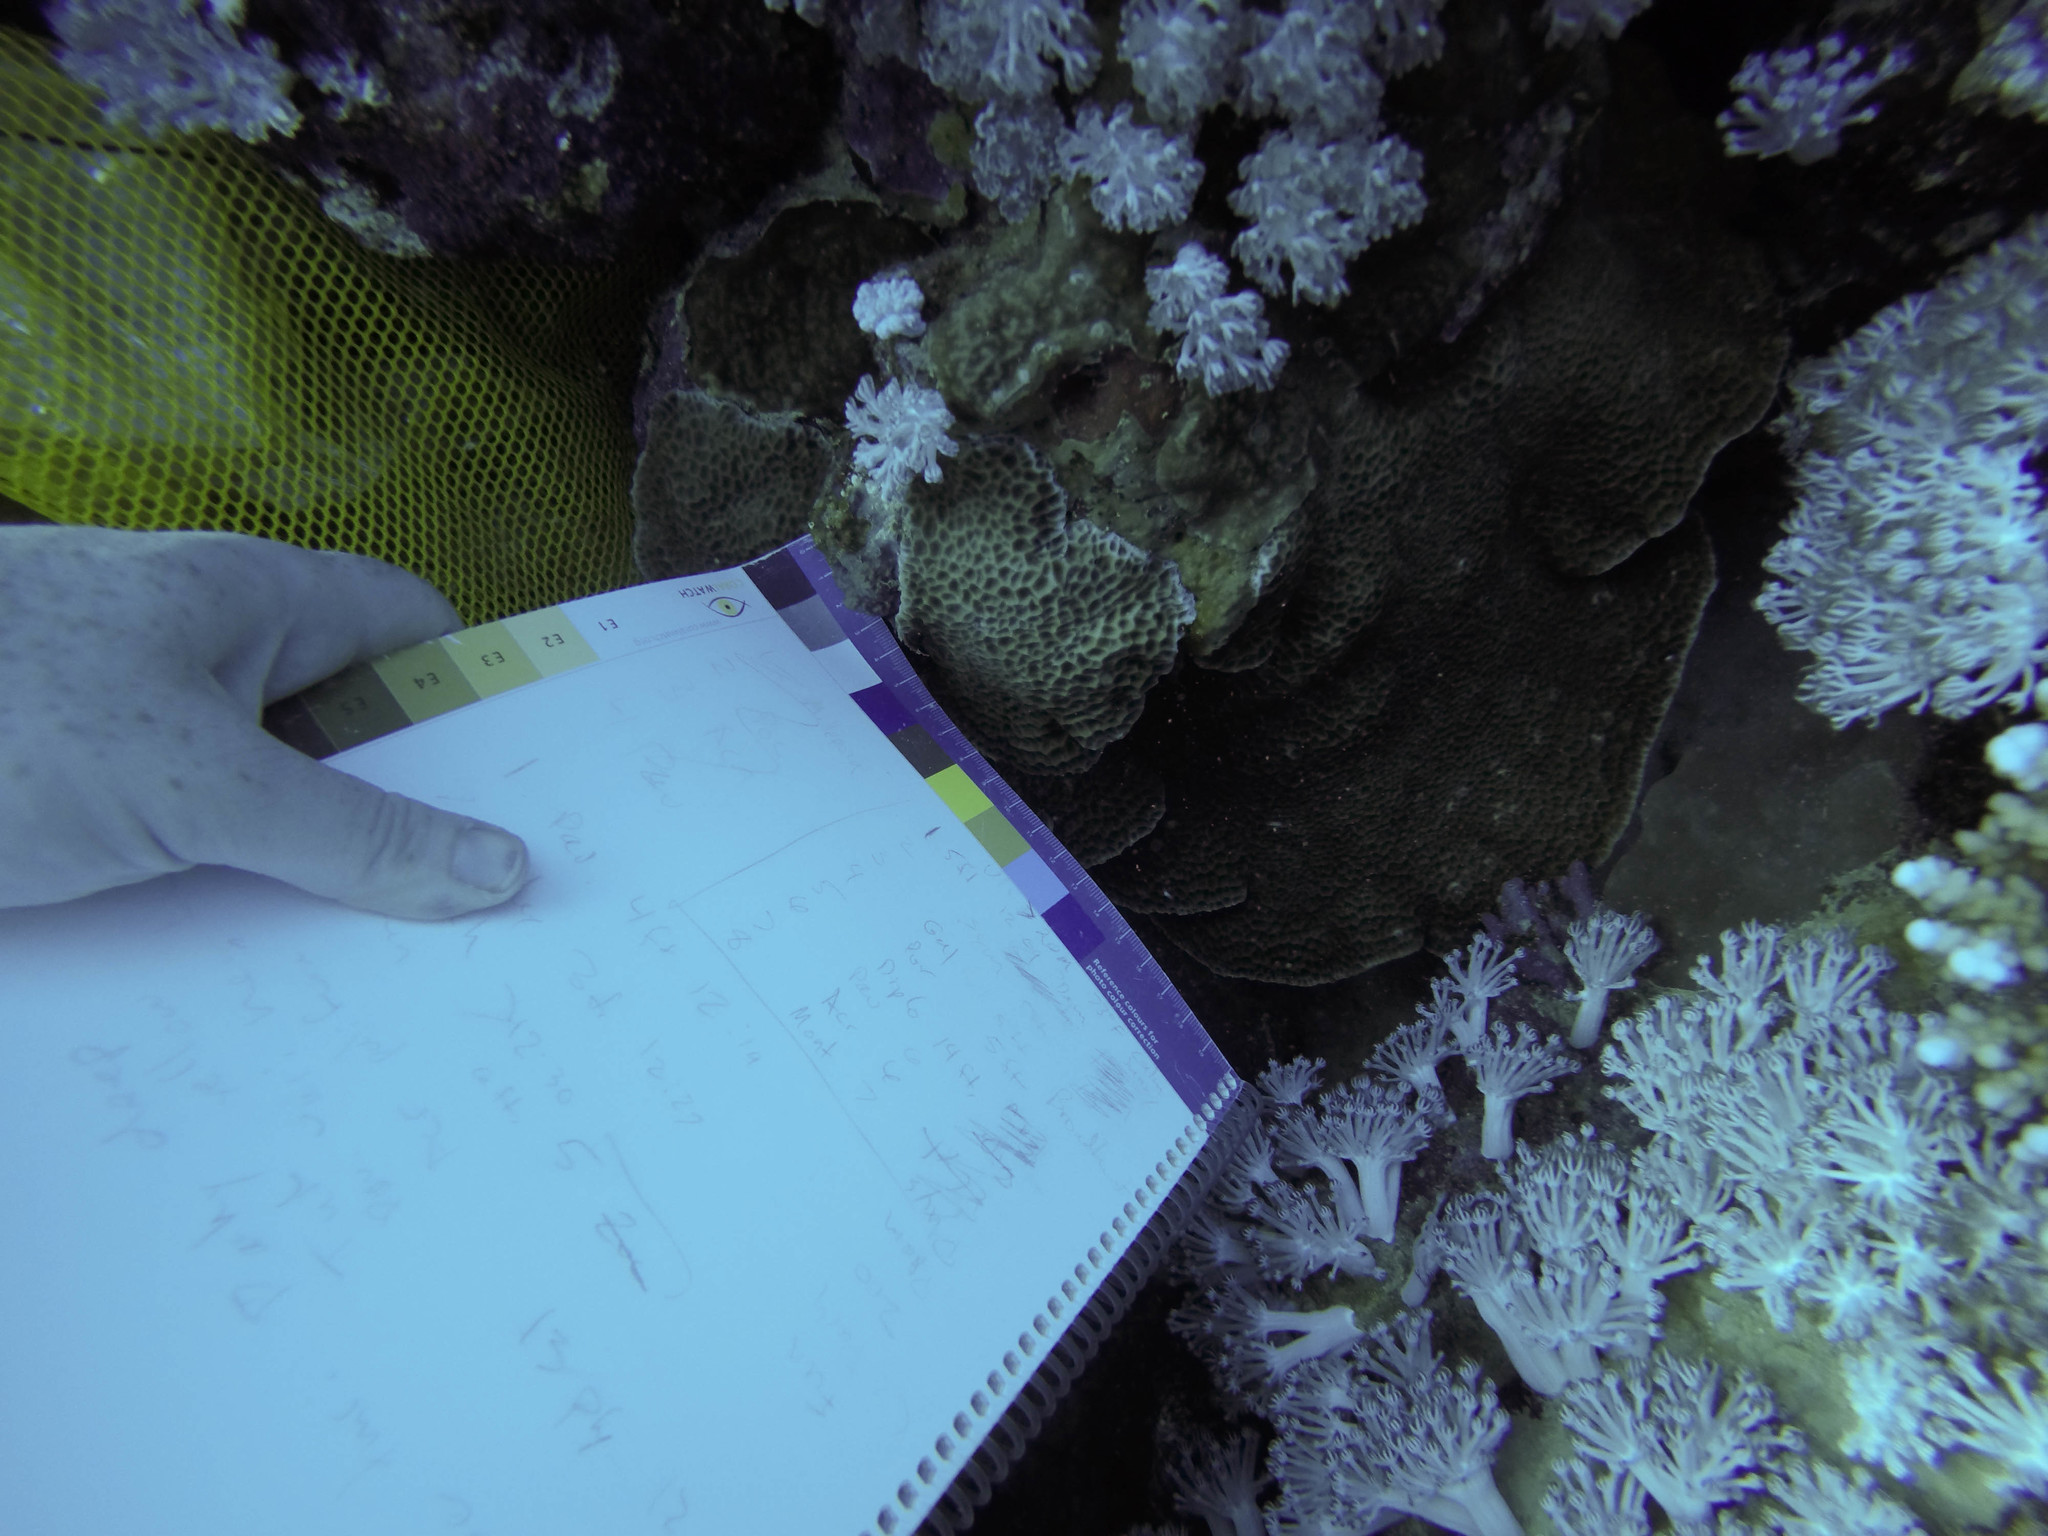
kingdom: Animalia
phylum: Cnidaria
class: Anthozoa
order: Scleractinia
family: Agariciidae
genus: Gardineroseris
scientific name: Gardineroseris planulata
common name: Gardiner's coral
